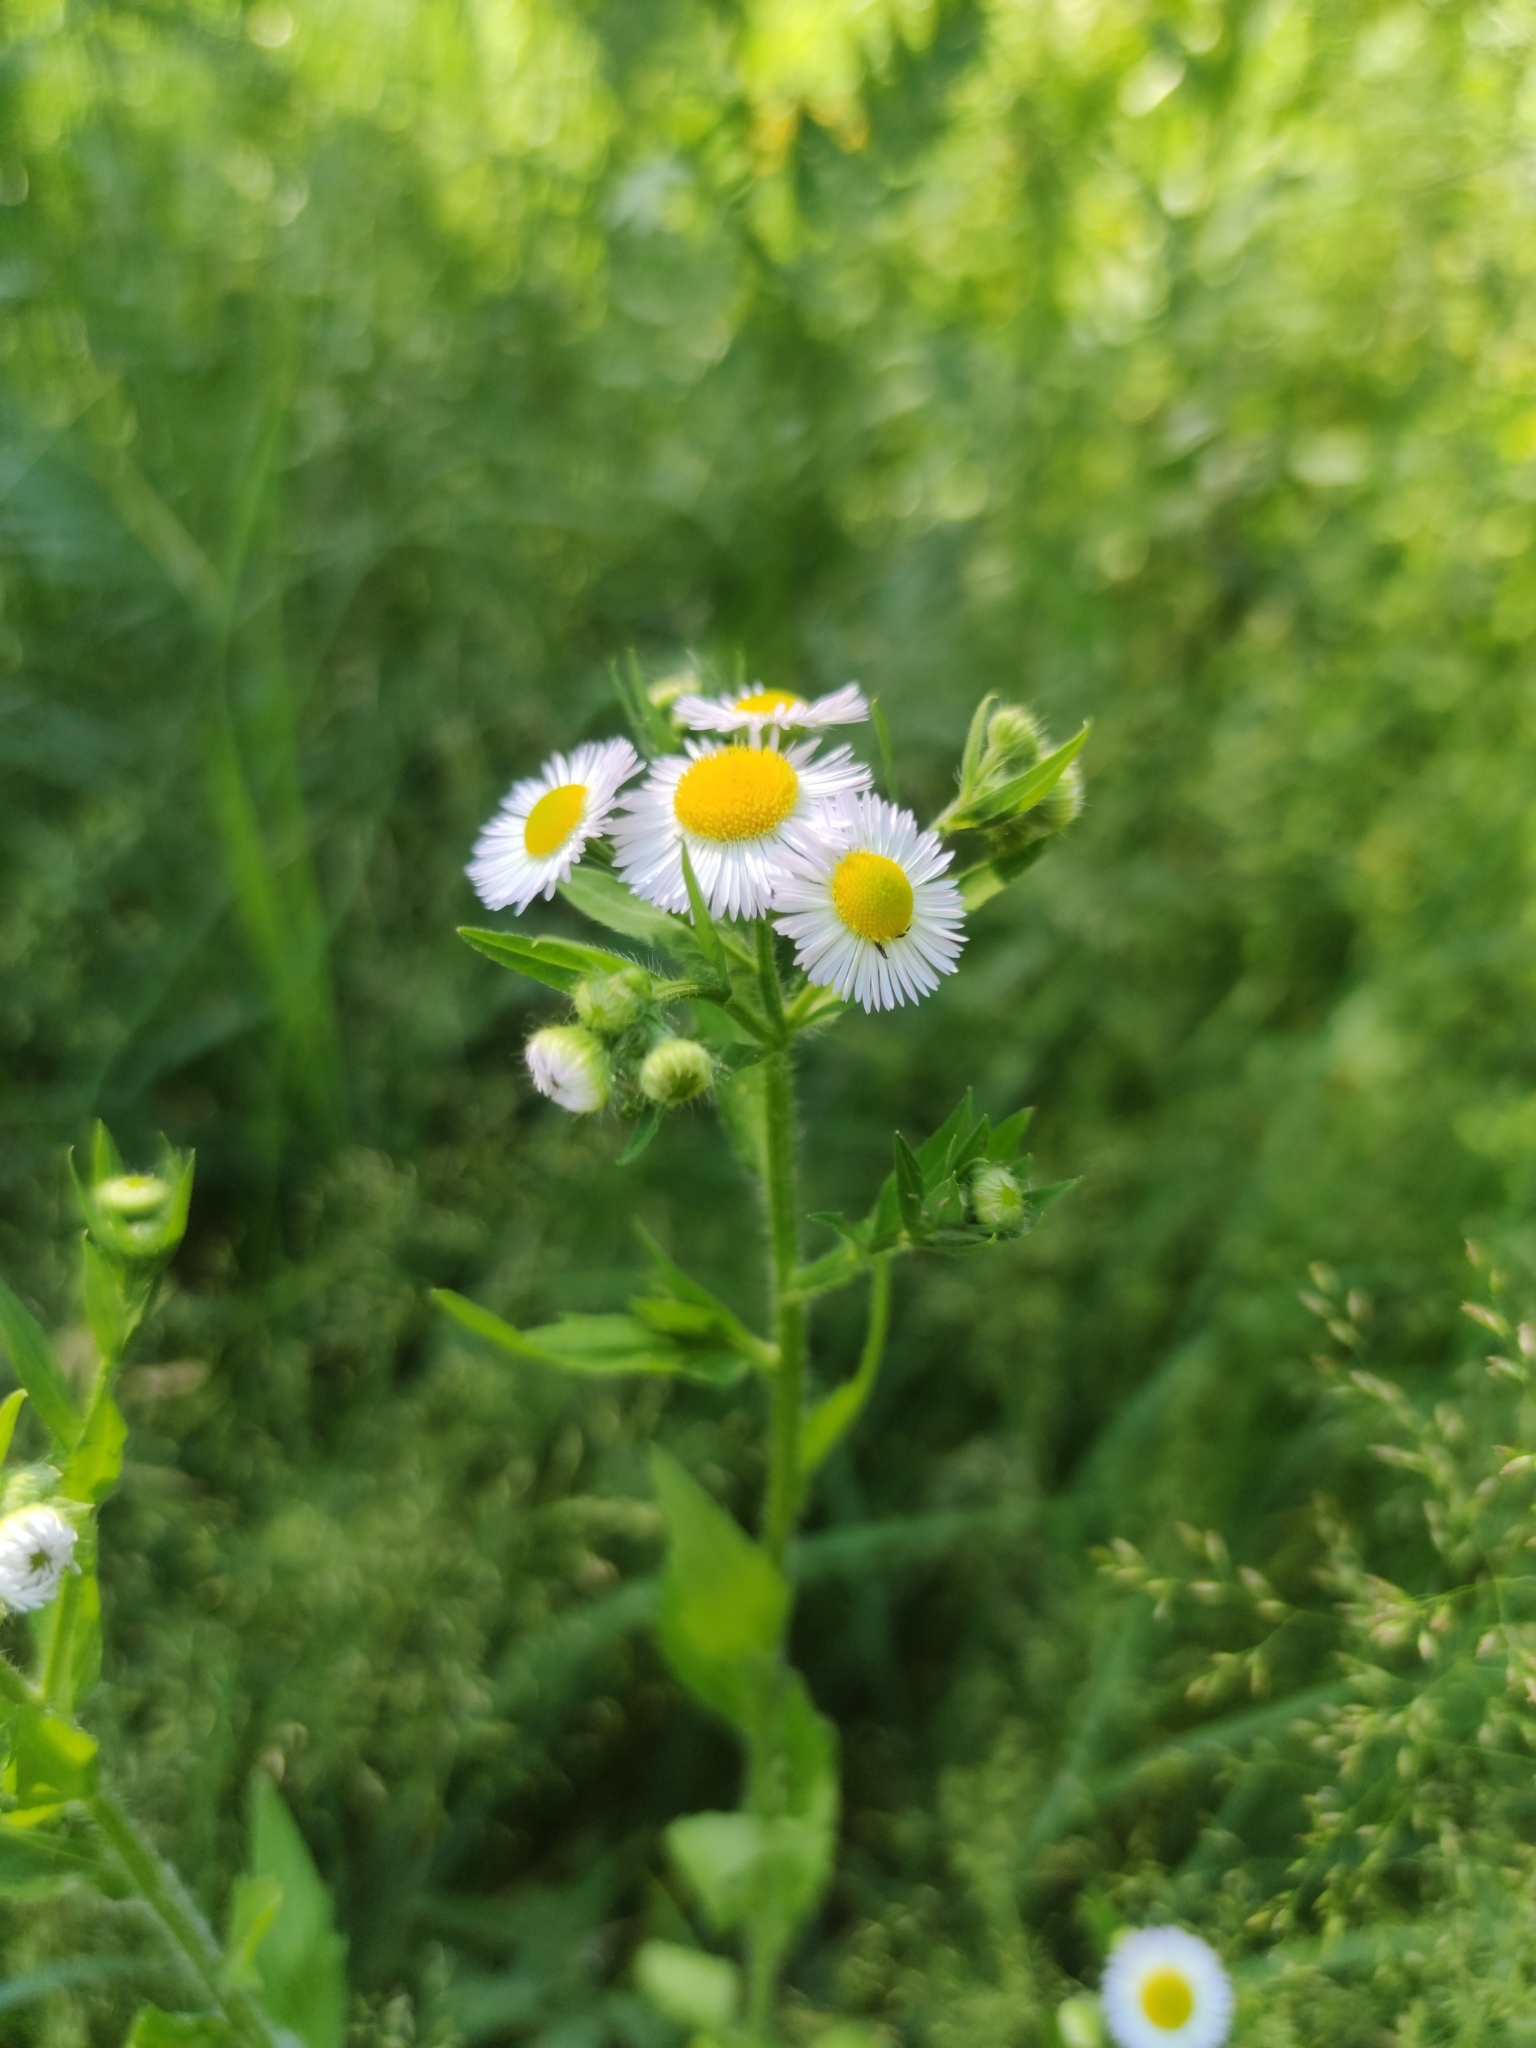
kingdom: Plantae
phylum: Tracheophyta
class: Magnoliopsida
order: Asterales
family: Asteraceae
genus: Erigeron
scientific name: Erigeron annuus
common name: Tall fleabane
